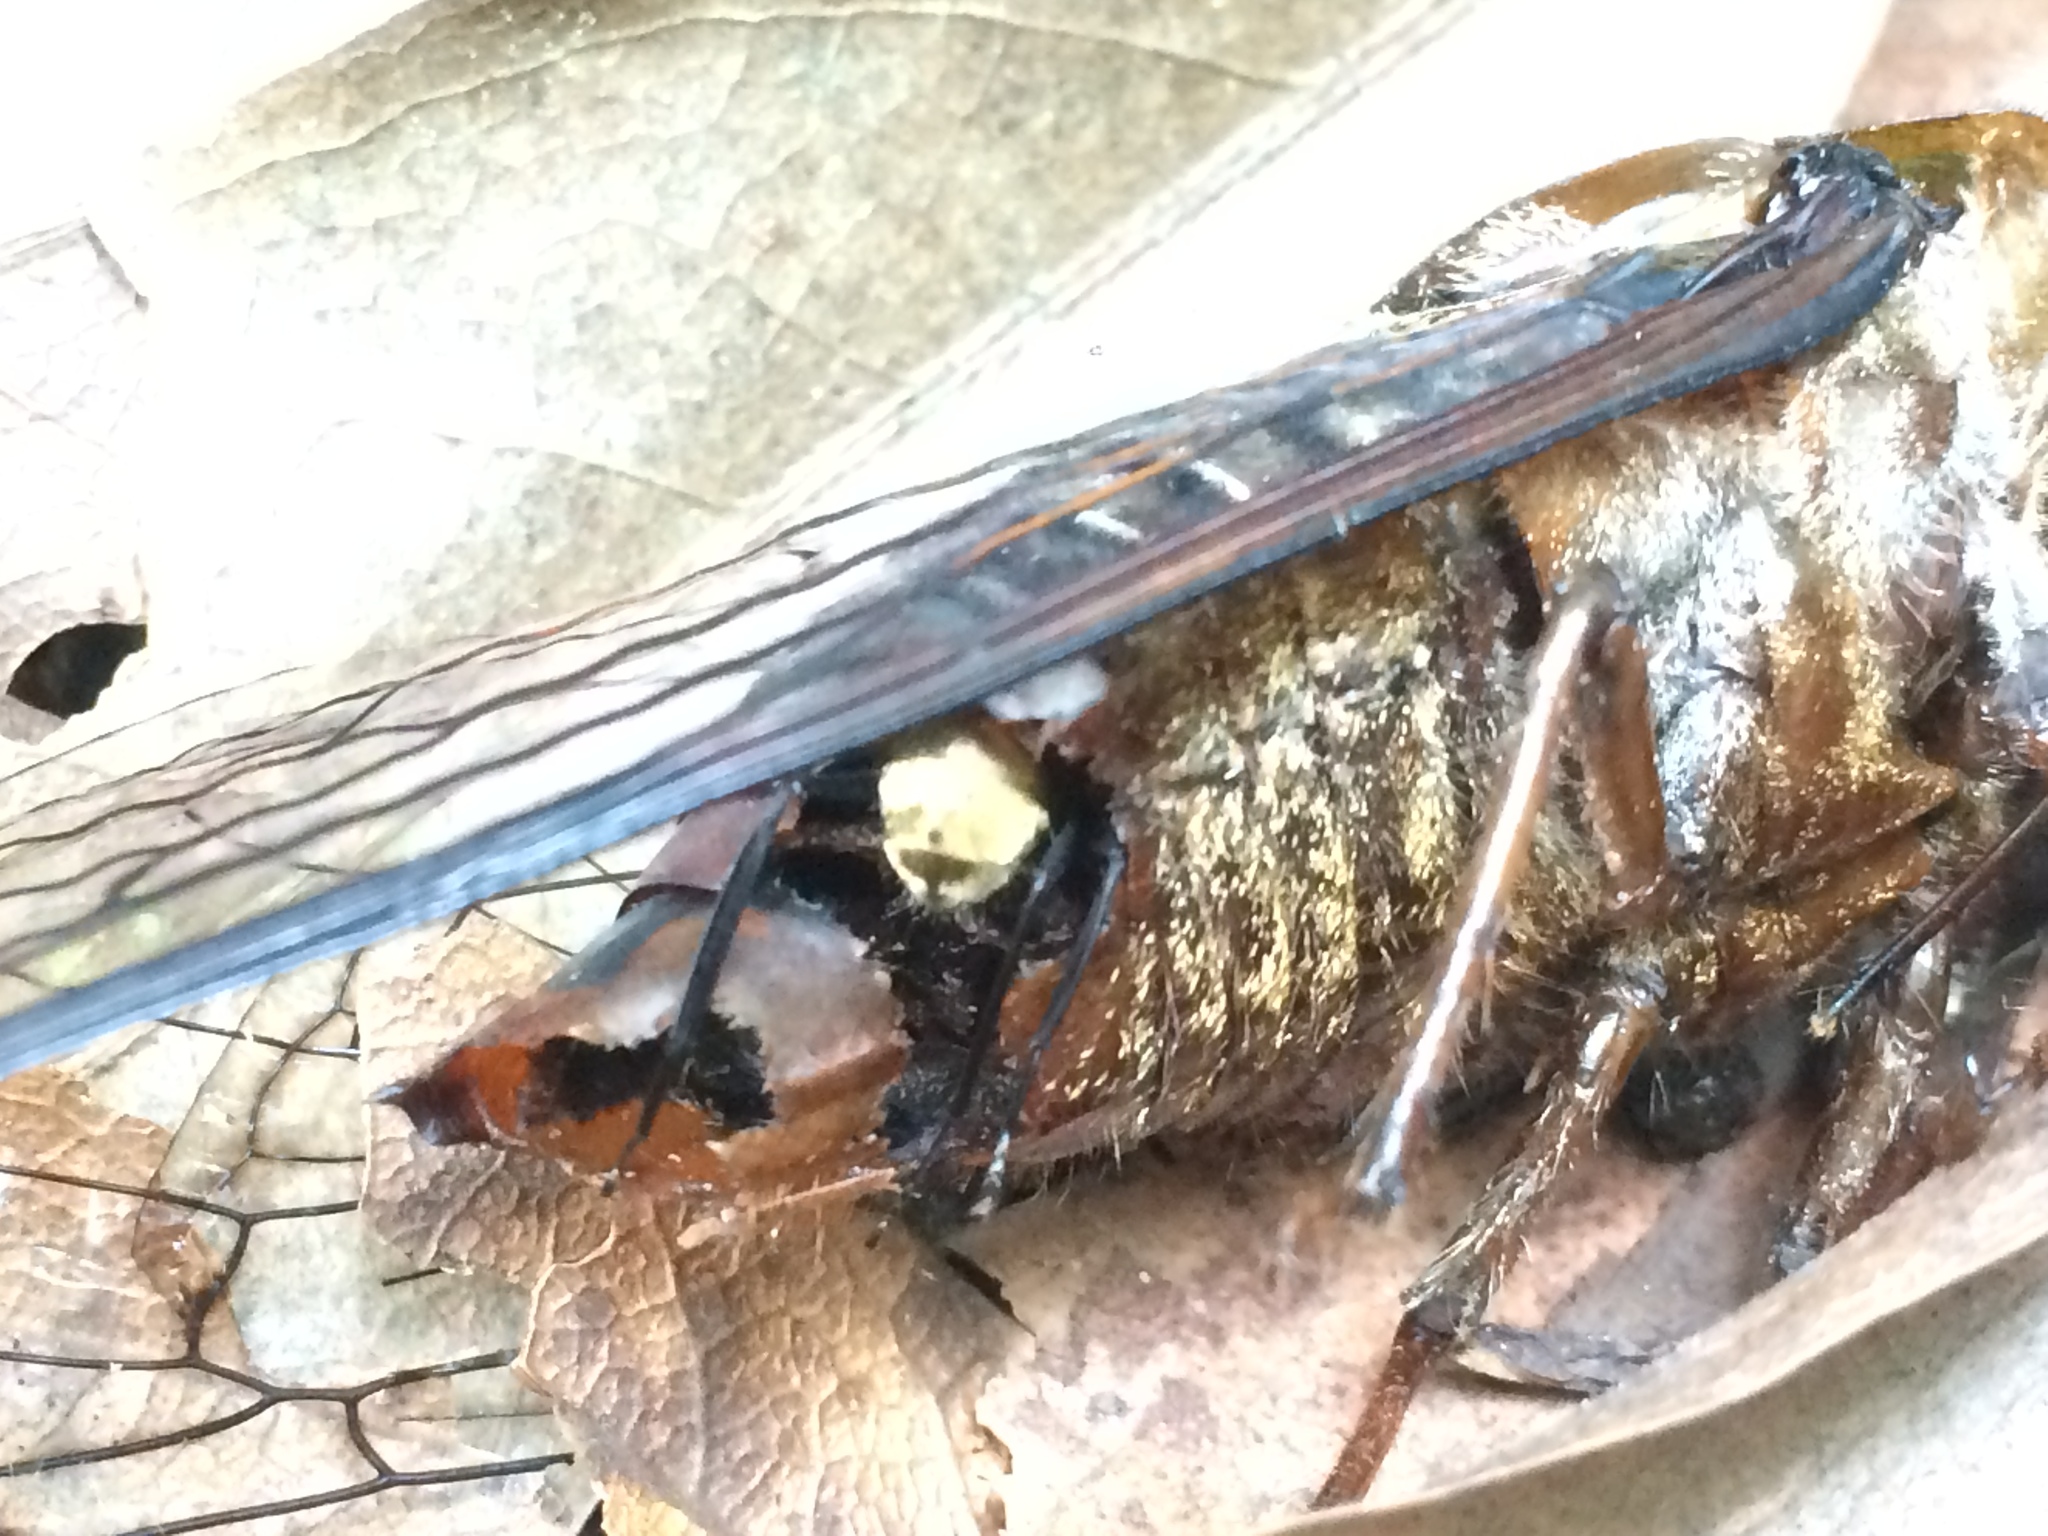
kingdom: Animalia
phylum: Arthropoda
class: Insecta
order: Hymenoptera
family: Formicidae
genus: Camponotus
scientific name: Camponotus sericeiventris
